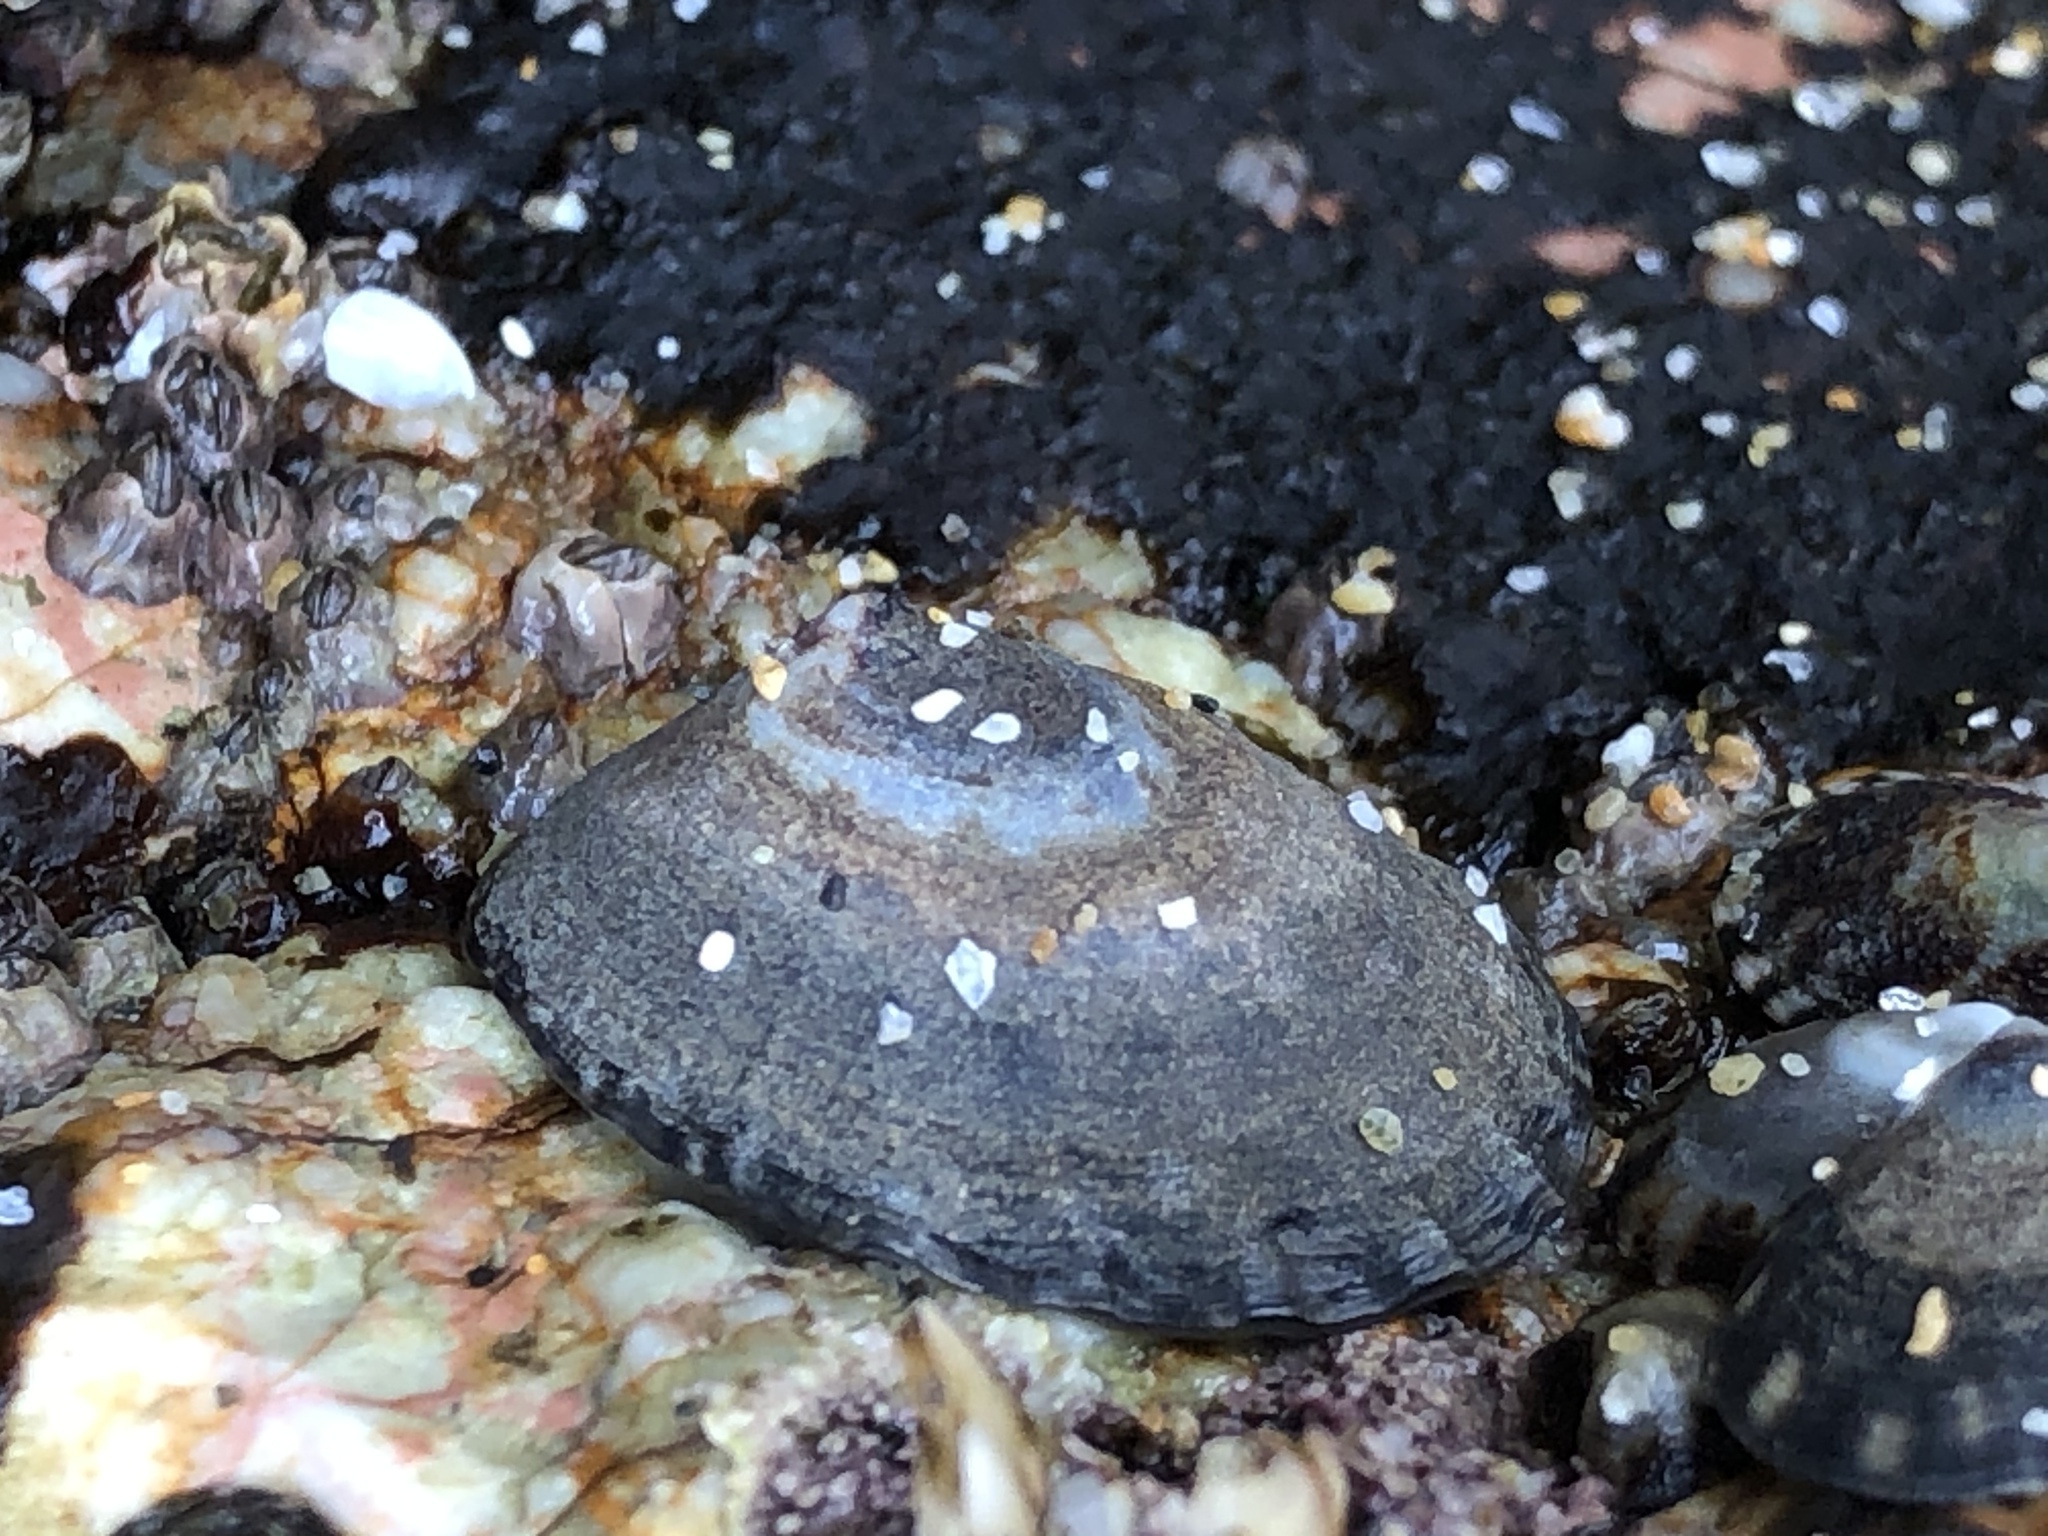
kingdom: Animalia
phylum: Mollusca
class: Gastropoda
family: Lottiidae
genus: Lottia
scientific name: Lottia
